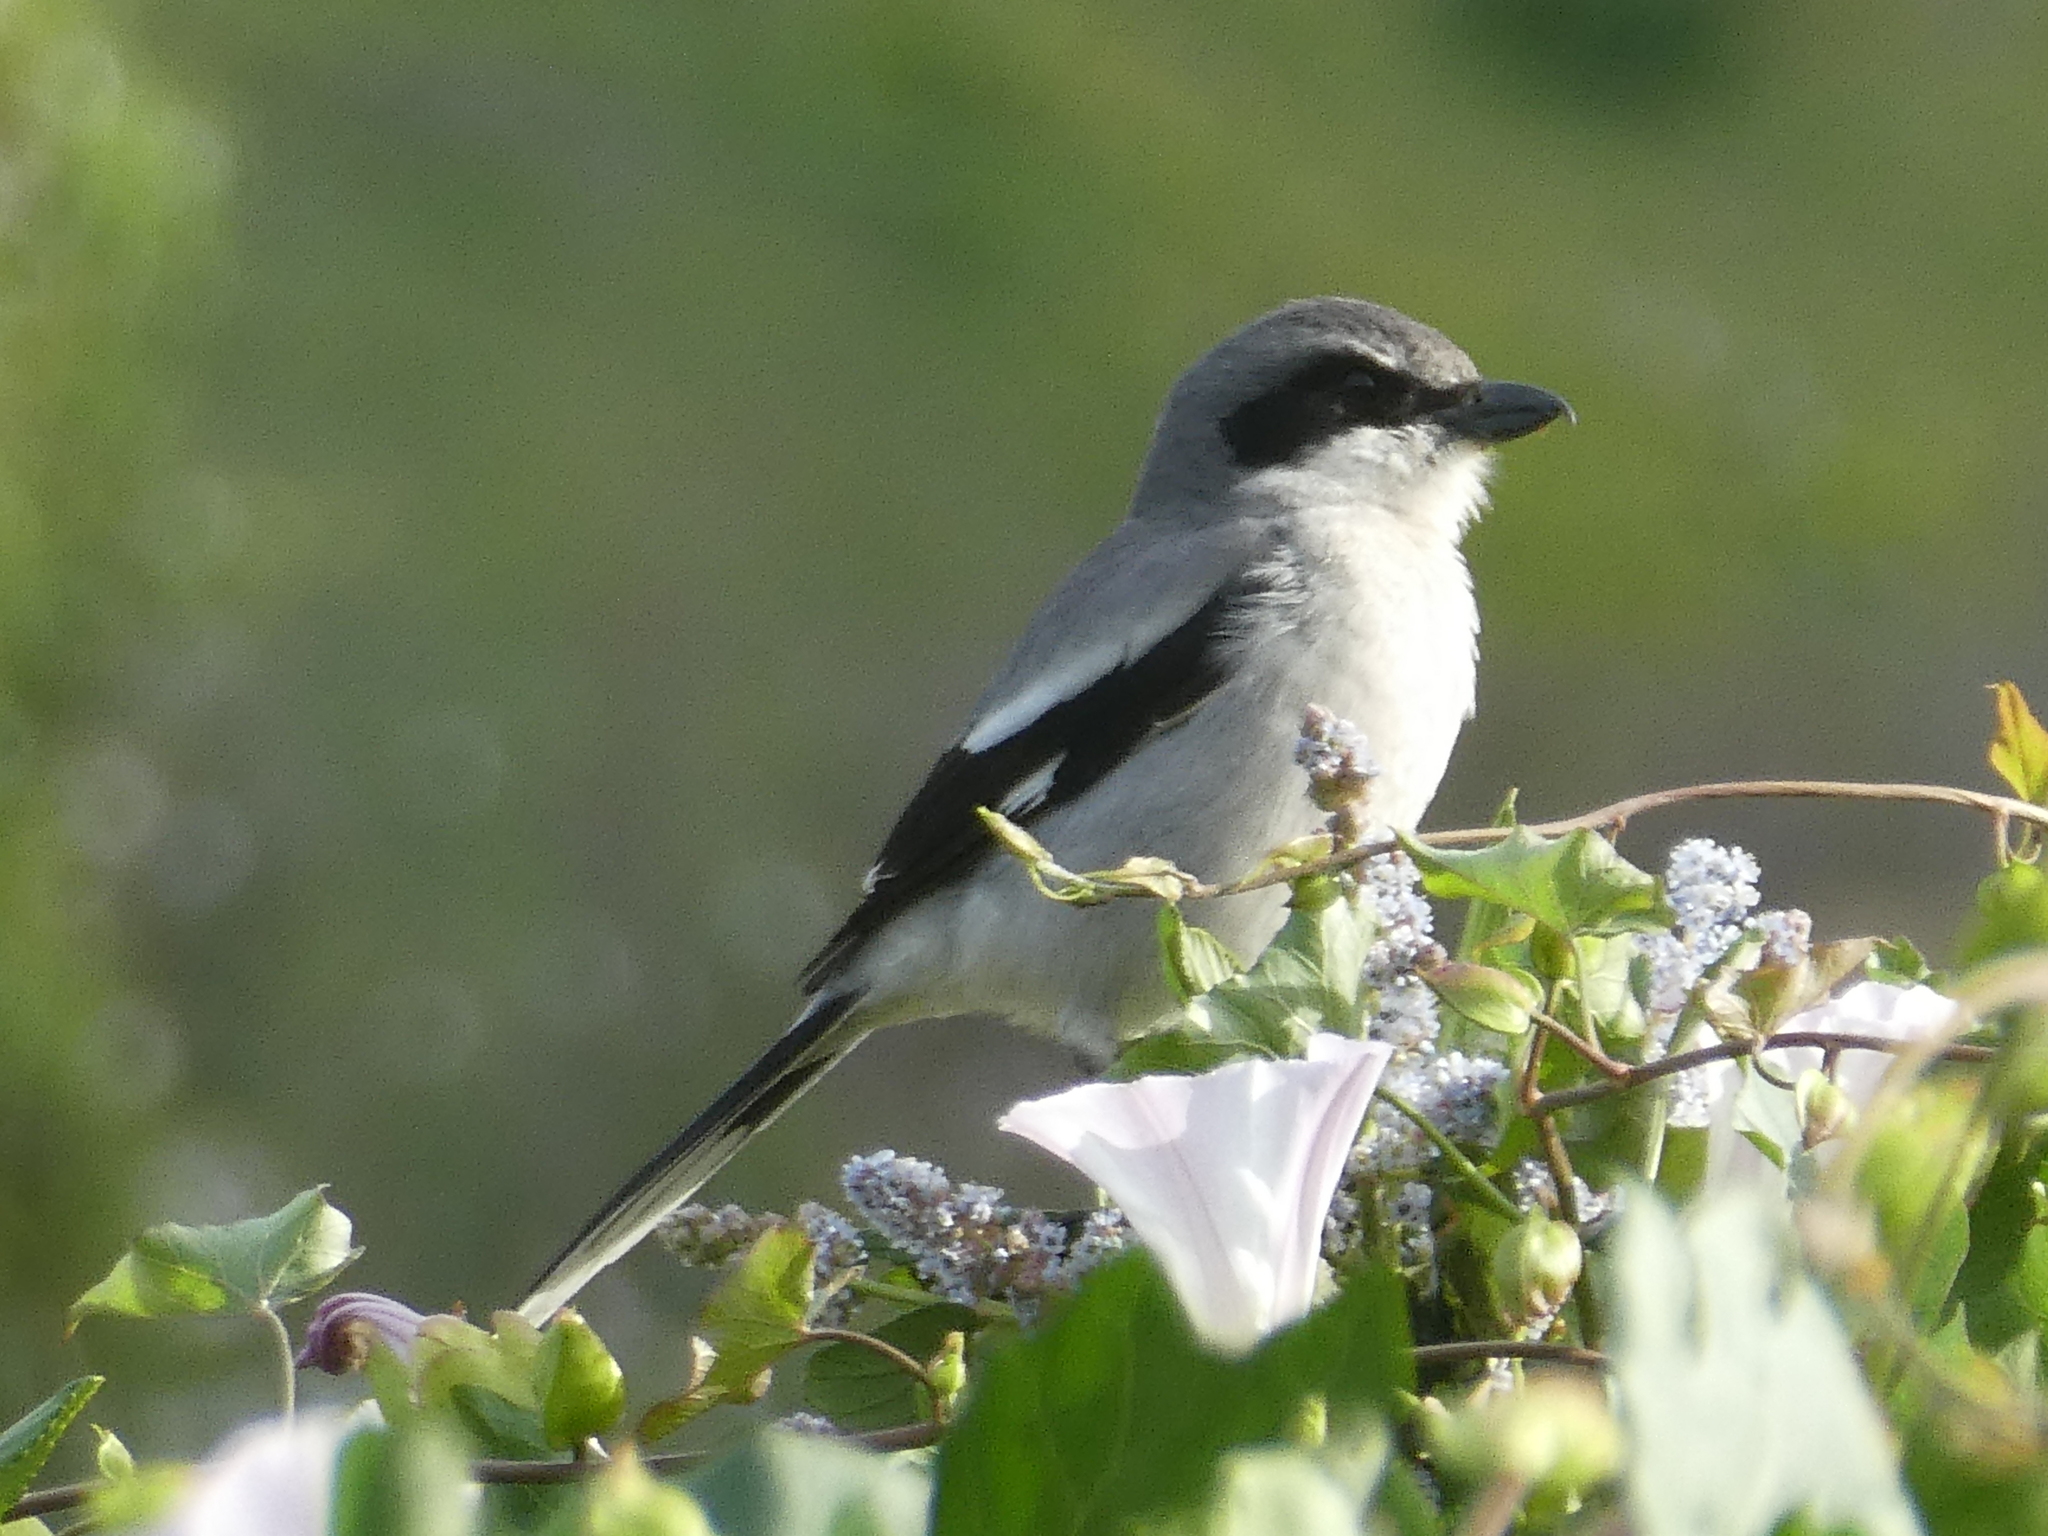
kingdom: Animalia
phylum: Chordata
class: Aves
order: Passeriformes
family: Laniidae
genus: Lanius
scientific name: Lanius ludovicianus
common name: Loggerhead shrike
